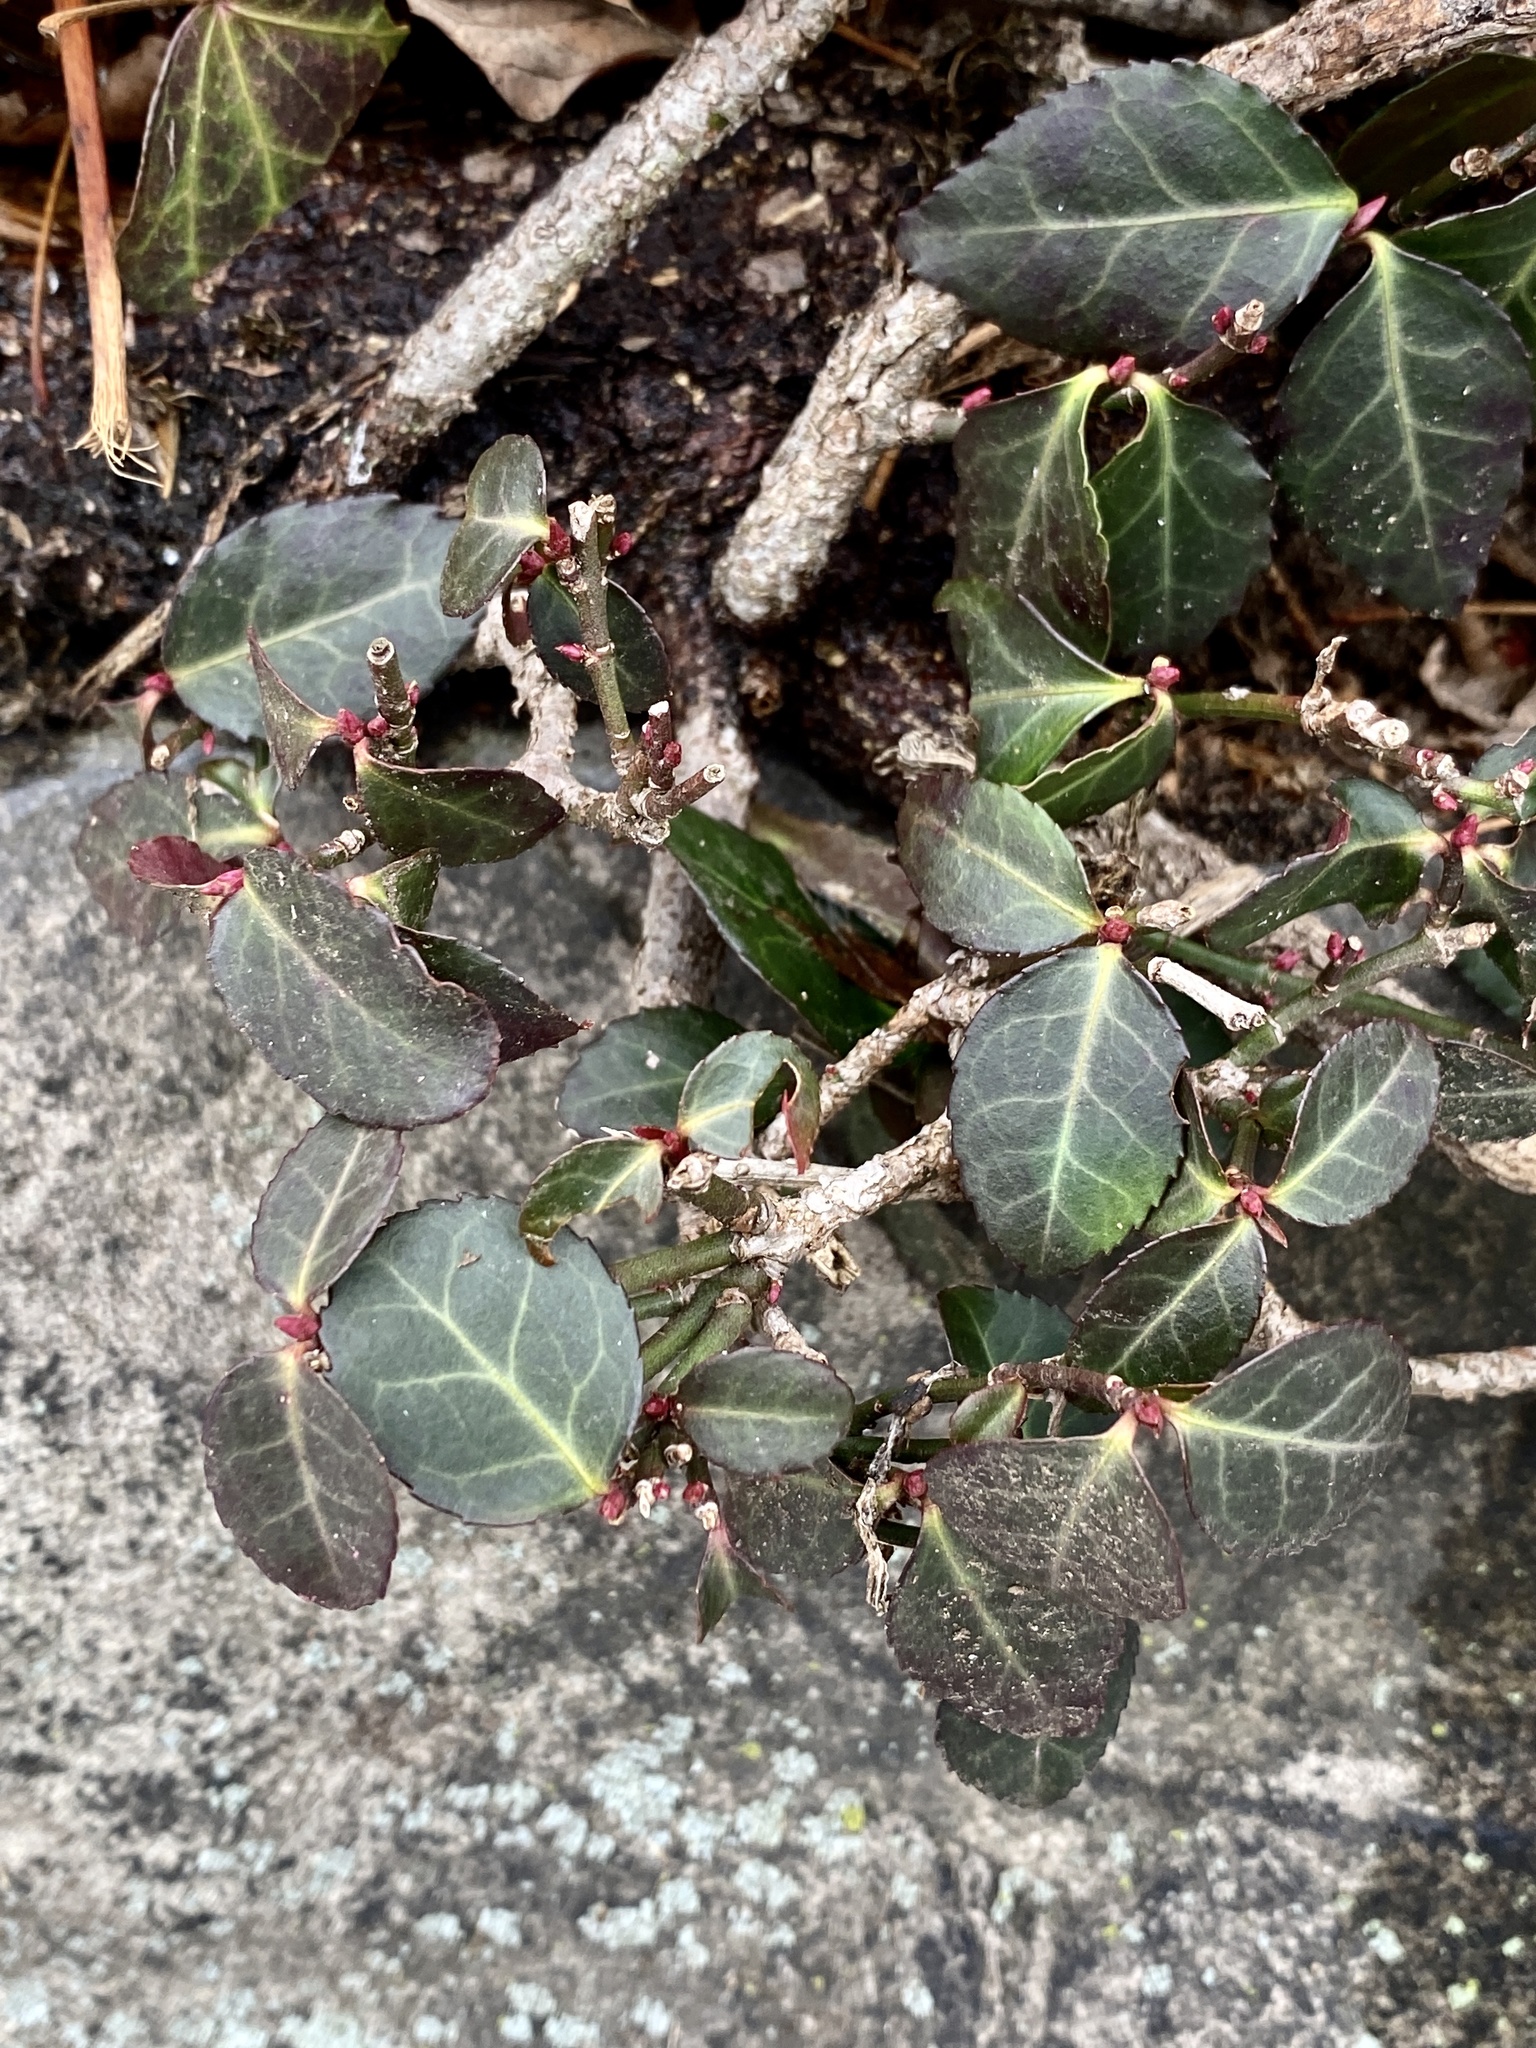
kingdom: Plantae
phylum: Tracheophyta
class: Magnoliopsida
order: Celastrales
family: Celastraceae
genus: Euonymus
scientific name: Euonymus fortunei
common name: Climbing euonymus
